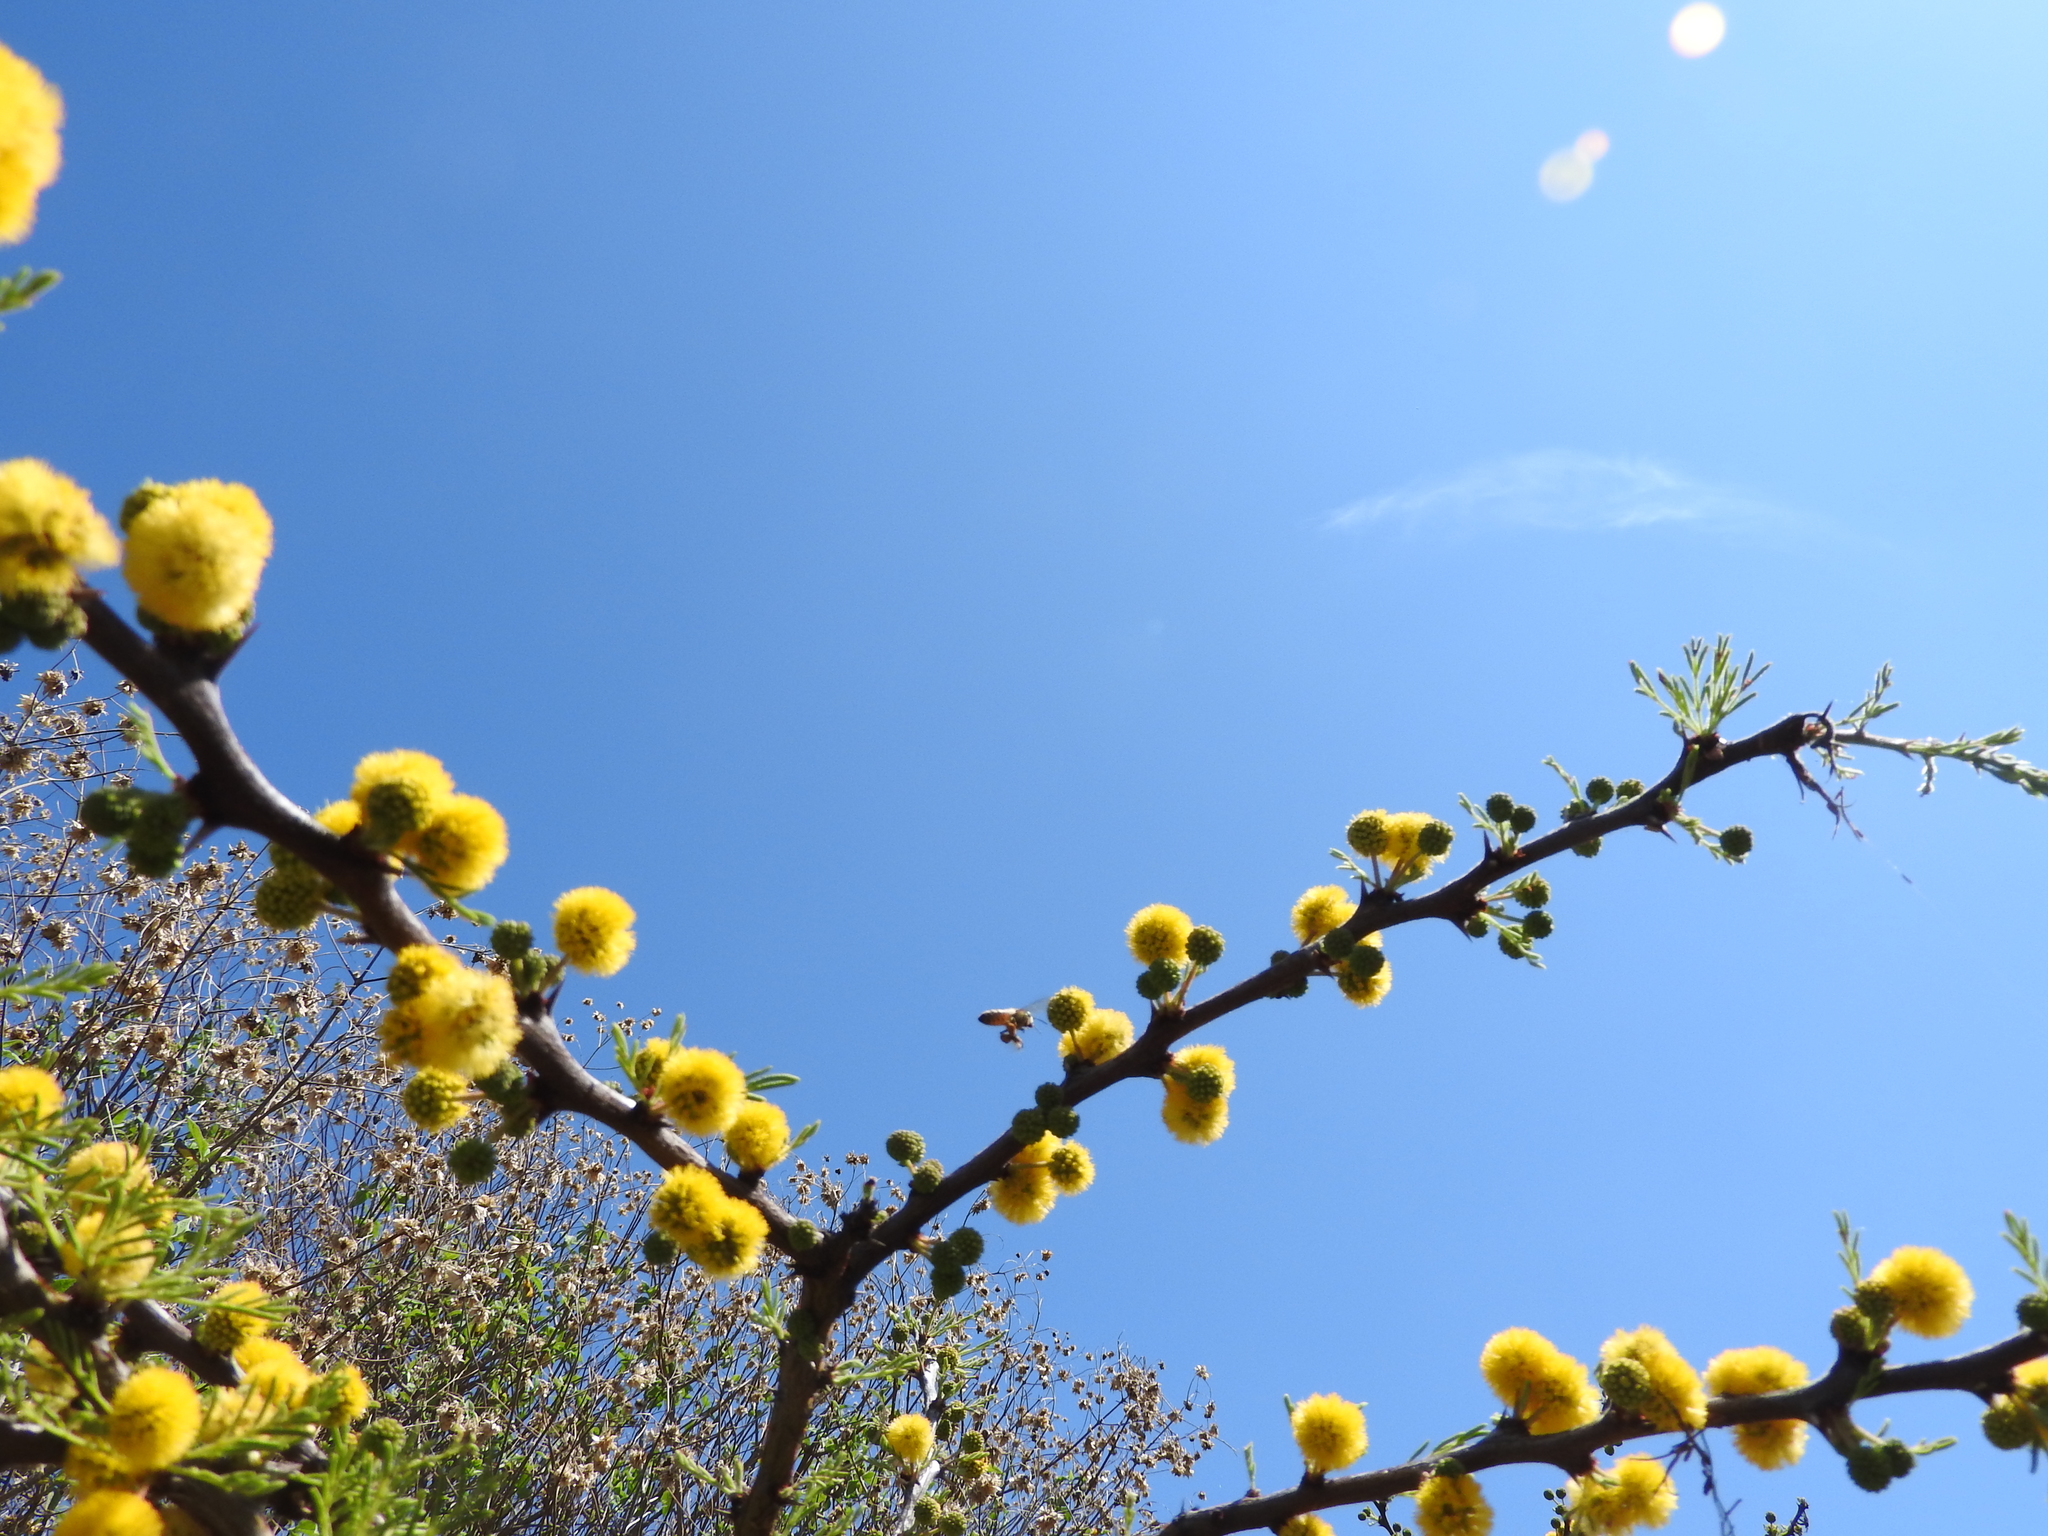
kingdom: Animalia
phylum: Arthropoda
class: Insecta
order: Hymenoptera
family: Apidae
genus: Apis
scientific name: Apis mellifera
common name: Honey bee
